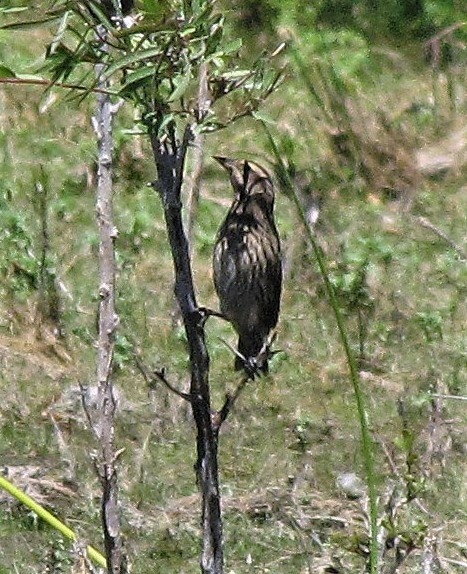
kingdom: Animalia
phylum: Chordata
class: Aves
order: Passeriformes
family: Icteridae
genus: Agelasticus
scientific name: Agelasticus thilius
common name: Yellow-winged blackbird
